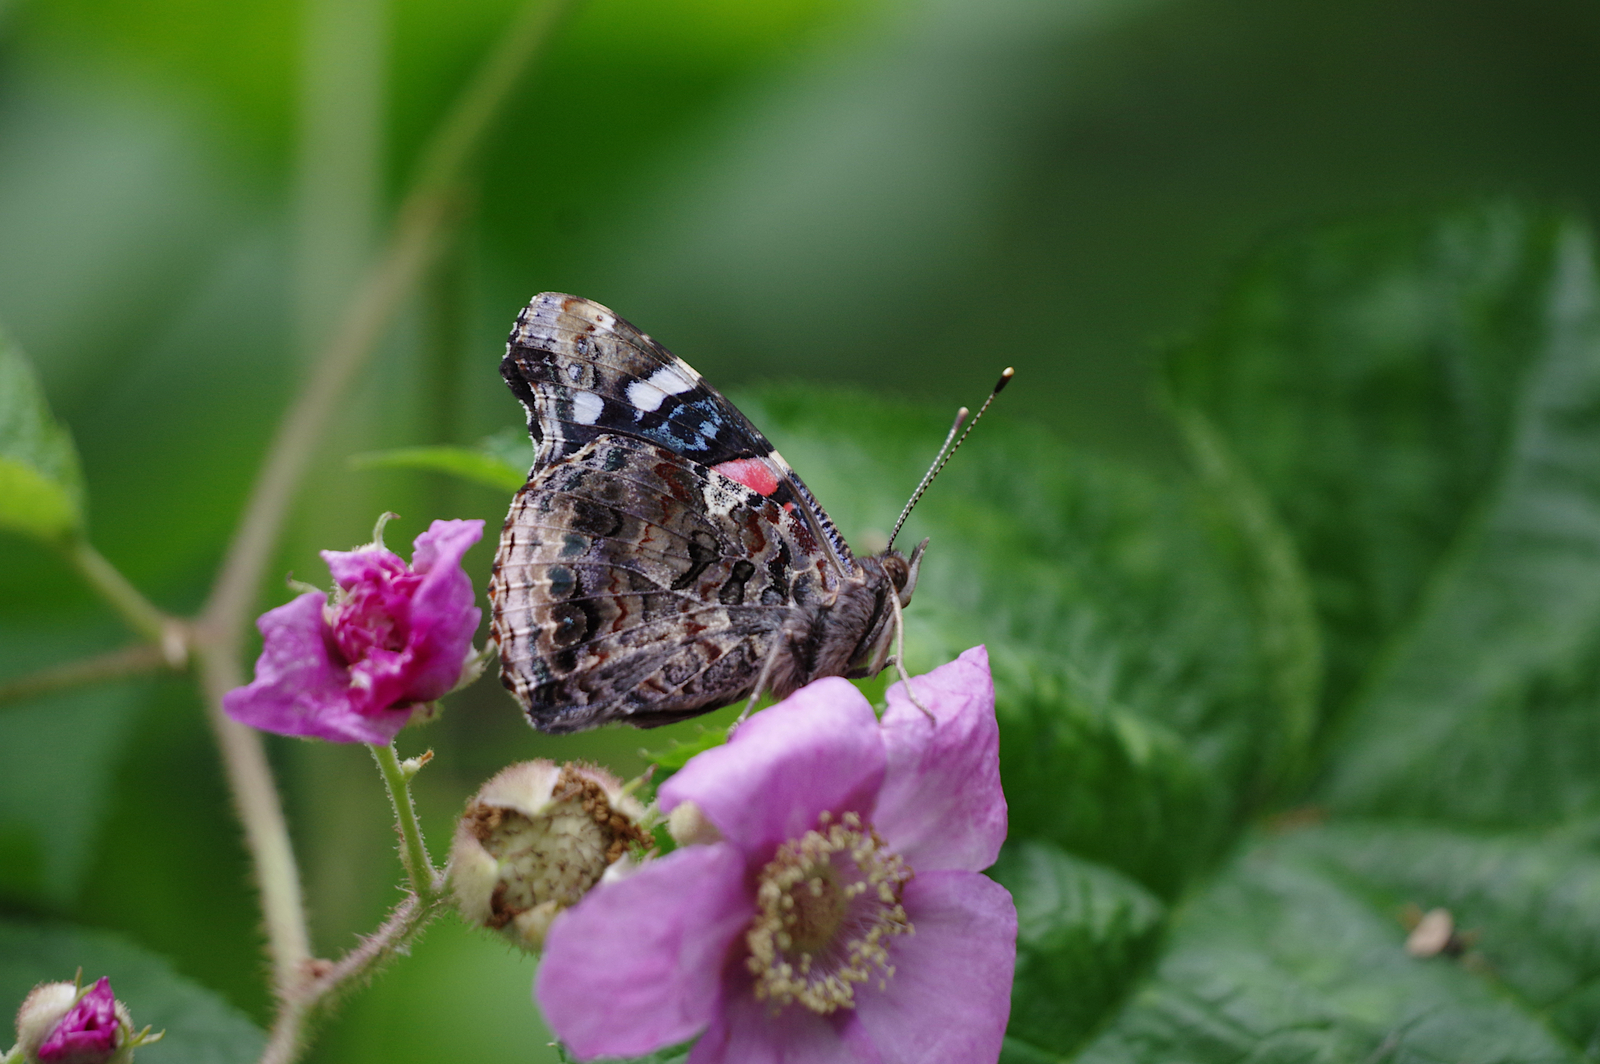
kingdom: Animalia
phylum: Arthropoda
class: Insecta
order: Lepidoptera
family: Nymphalidae
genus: Vanessa
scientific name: Vanessa atalanta
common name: Red admiral
